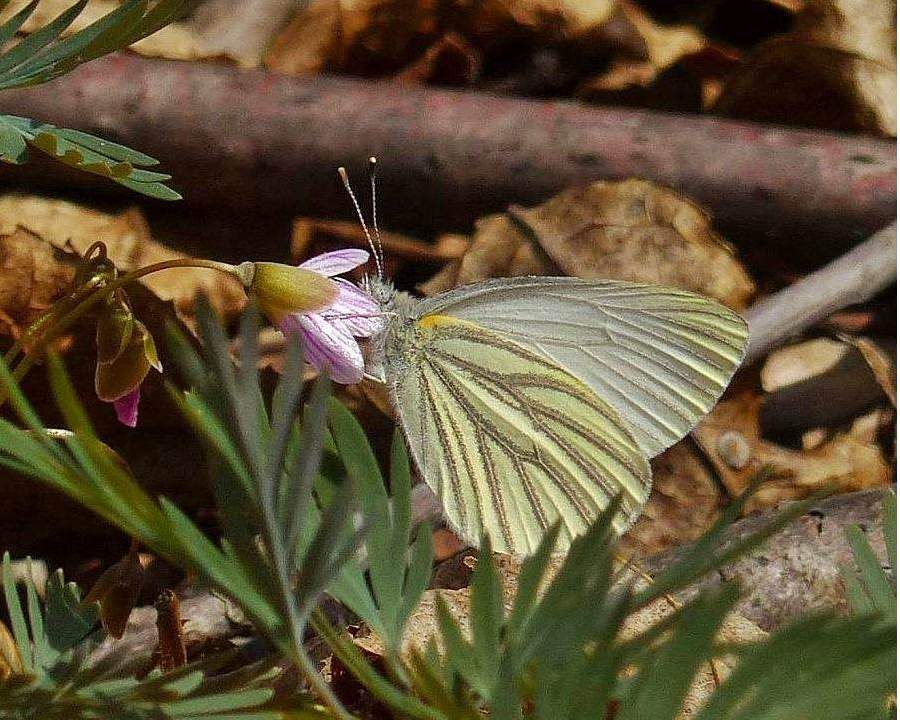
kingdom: Animalia
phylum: Arthropoda
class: Insecta
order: Lepidoptera
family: Pieridae
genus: Pieris
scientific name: Pieris oleracea
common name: Mustard white
